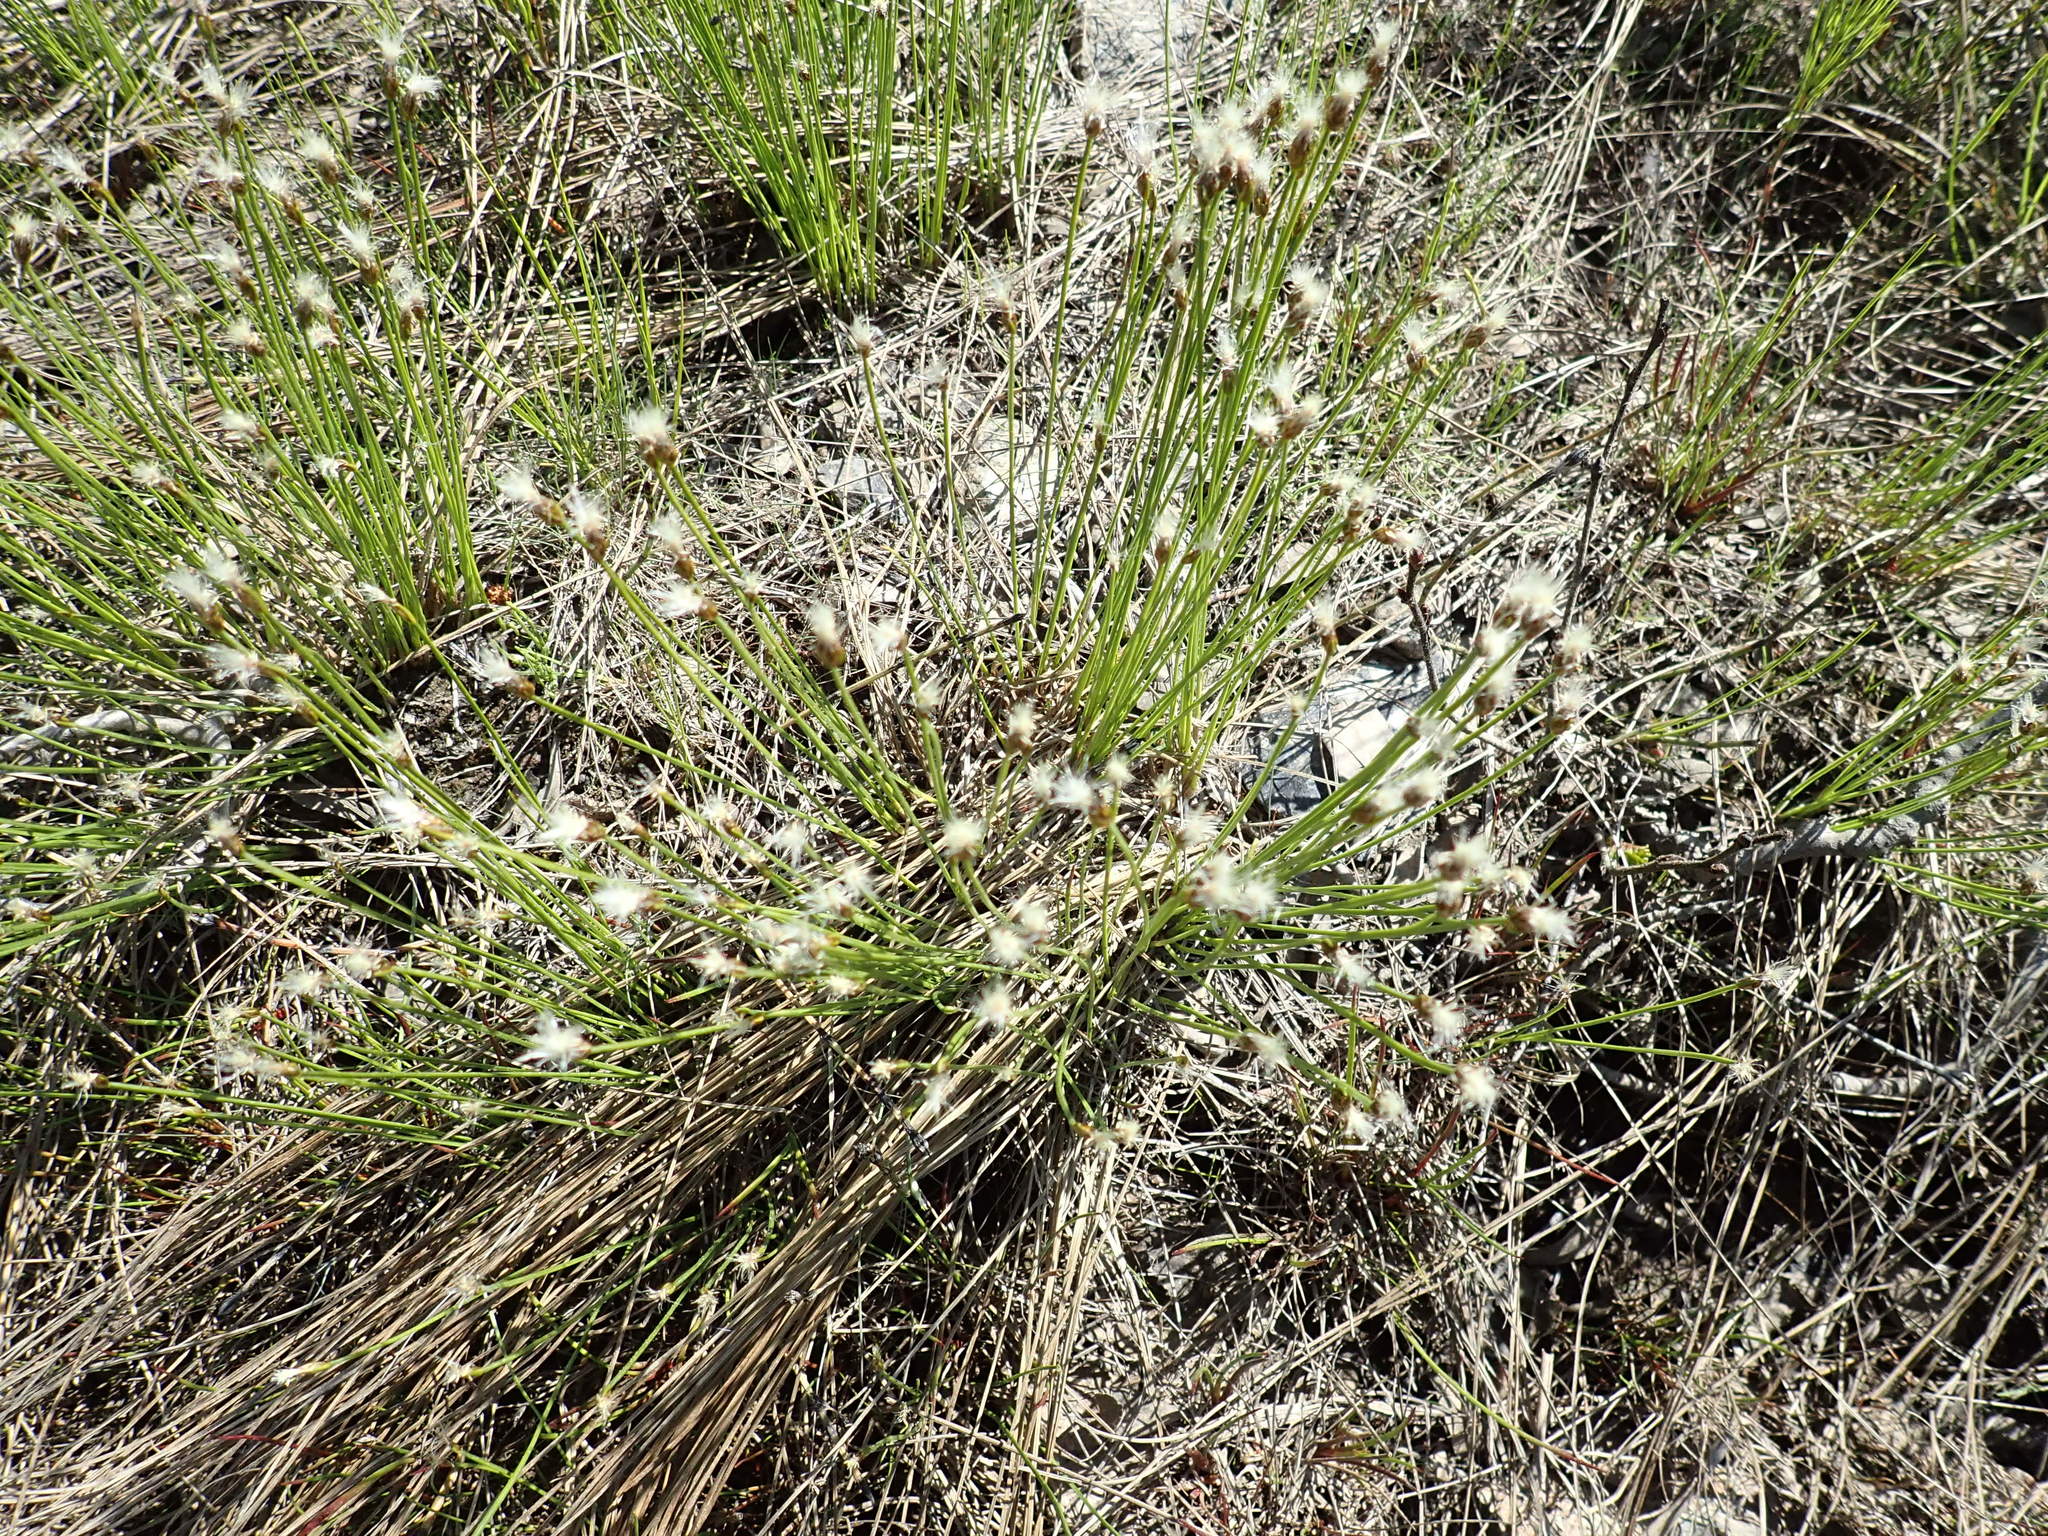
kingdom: Plantae
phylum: Tracheophyta
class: Liliopsida
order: Poales
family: Cyperaceae
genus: Trichophorum
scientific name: Trichophorum alpinum
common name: Alpine bulrush
